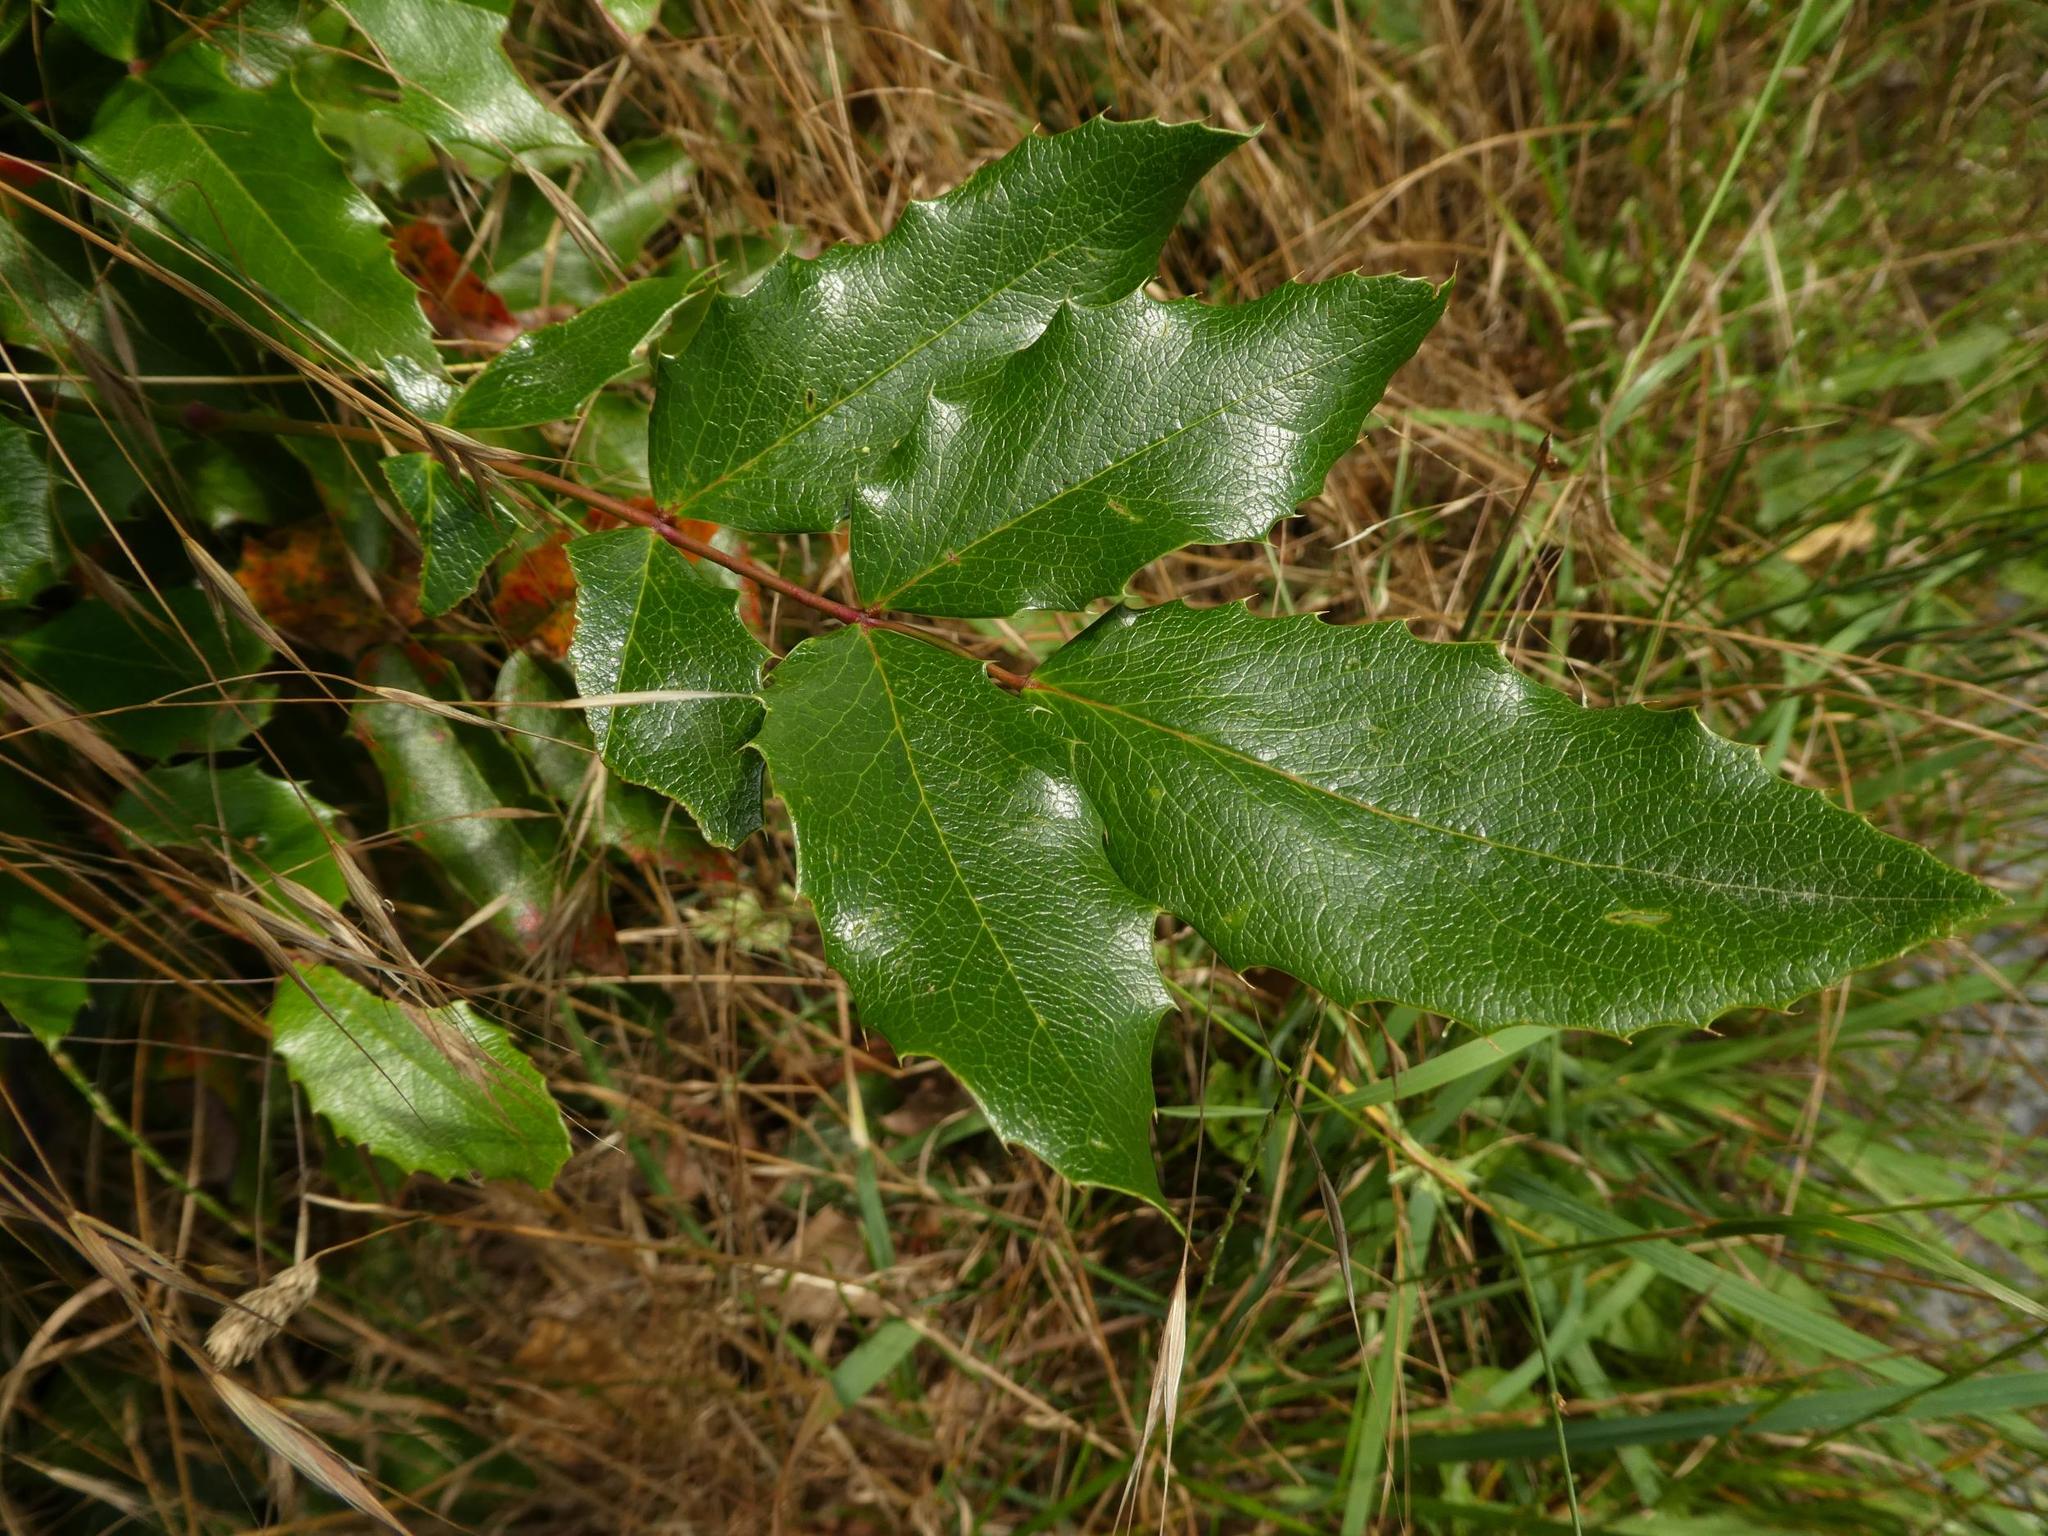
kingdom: Plantae
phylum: Tracheophyta
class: Magnoliopsida
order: Ranunculales
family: Berberidaceae
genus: Mahonia
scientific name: Mahonia aquifolium
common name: Oregon-grape
